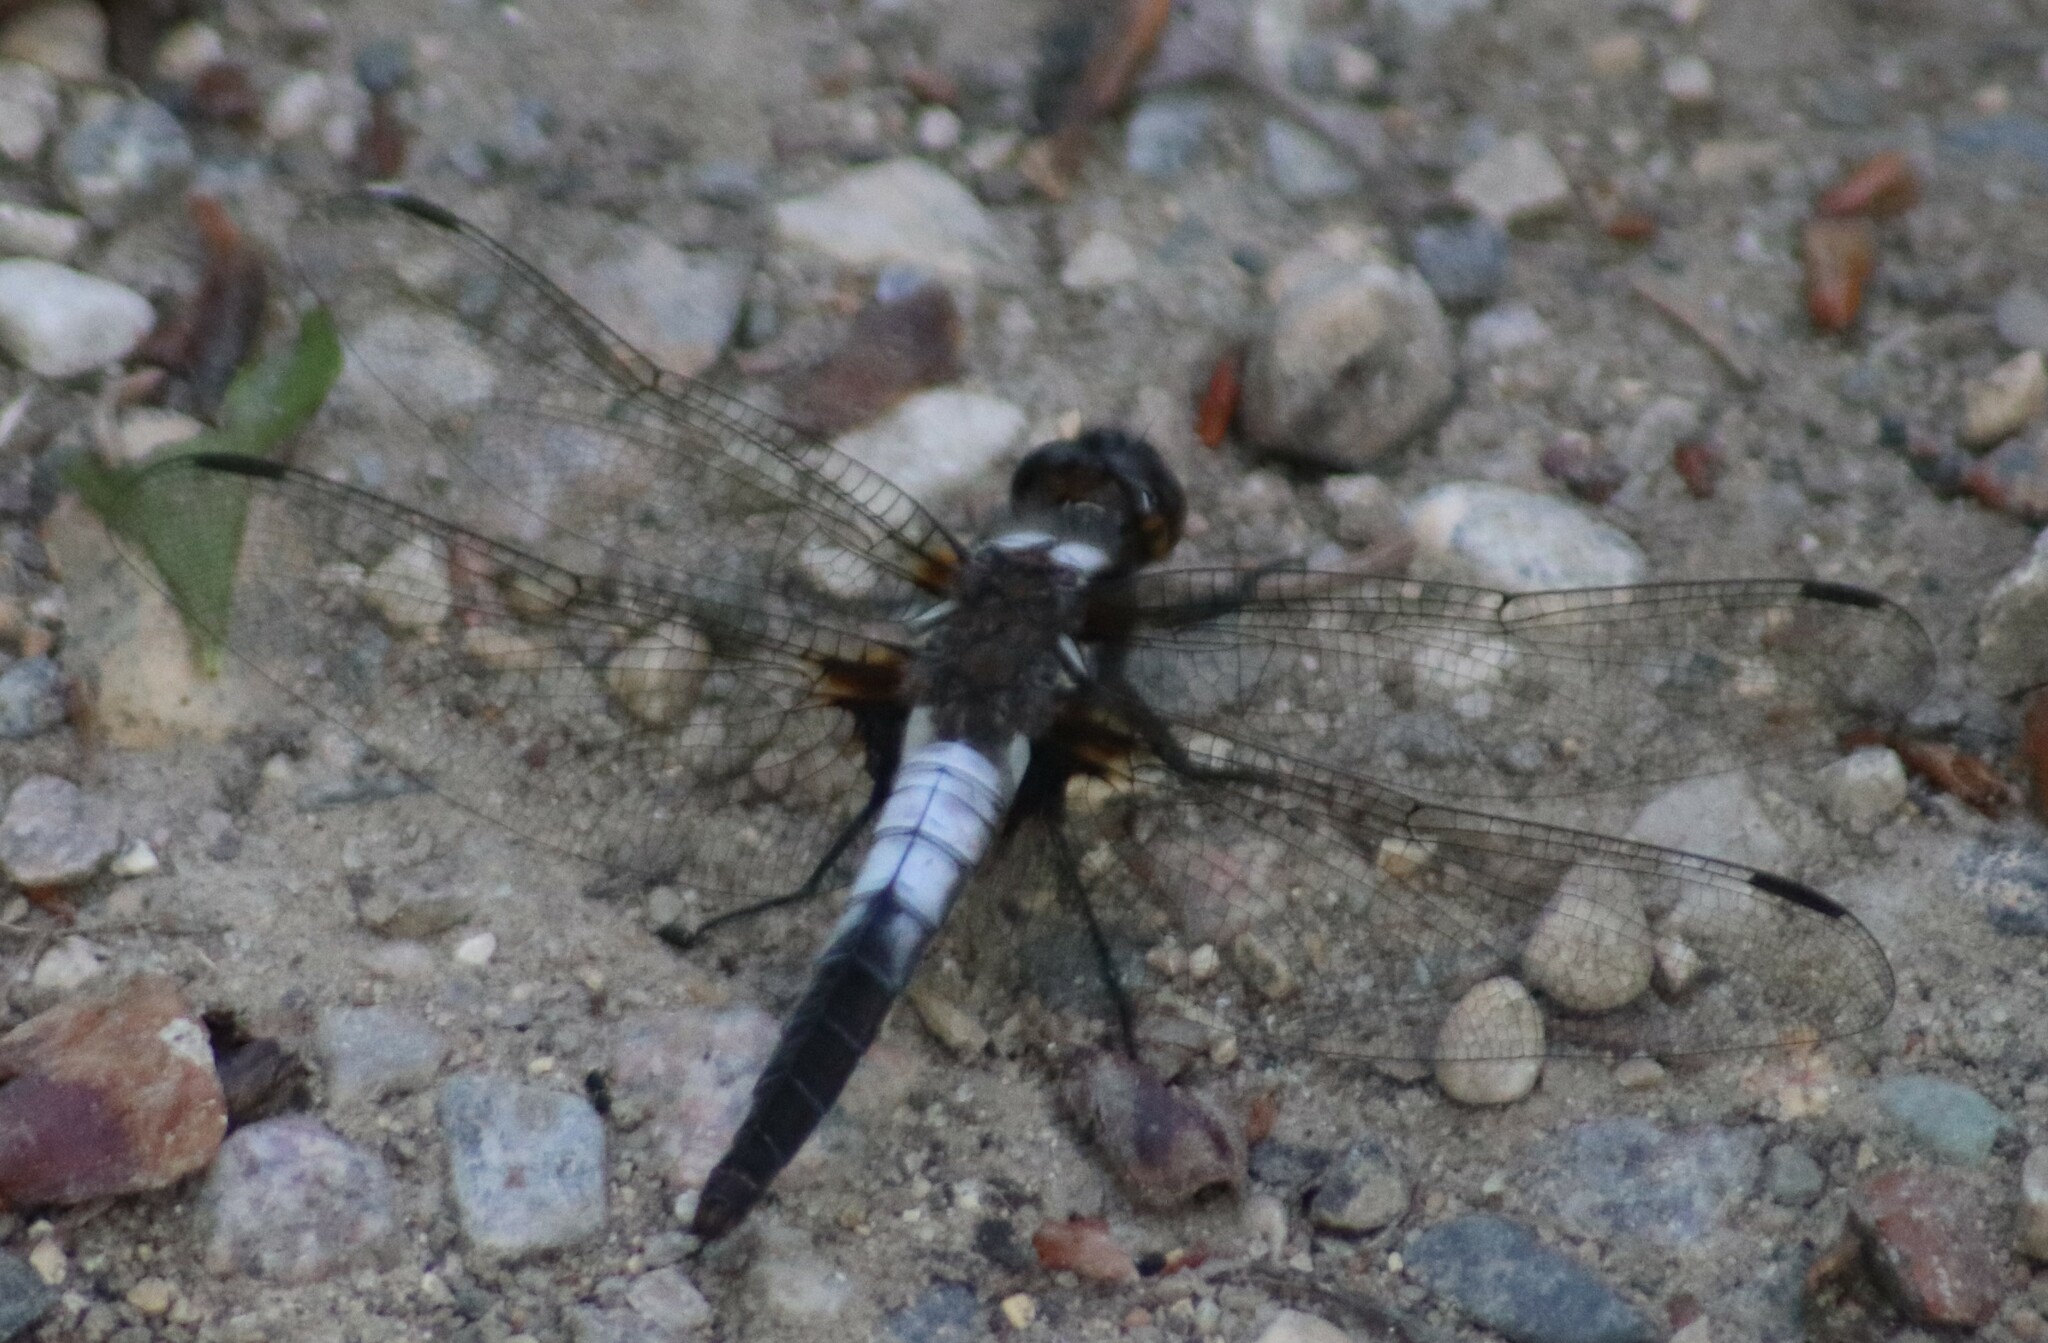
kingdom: Animalia
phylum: Arthropoda
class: Insecta
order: Odonata
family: Libellulidae
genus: Ladona
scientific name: Ladona julia
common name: Chalk-fronted corporal
